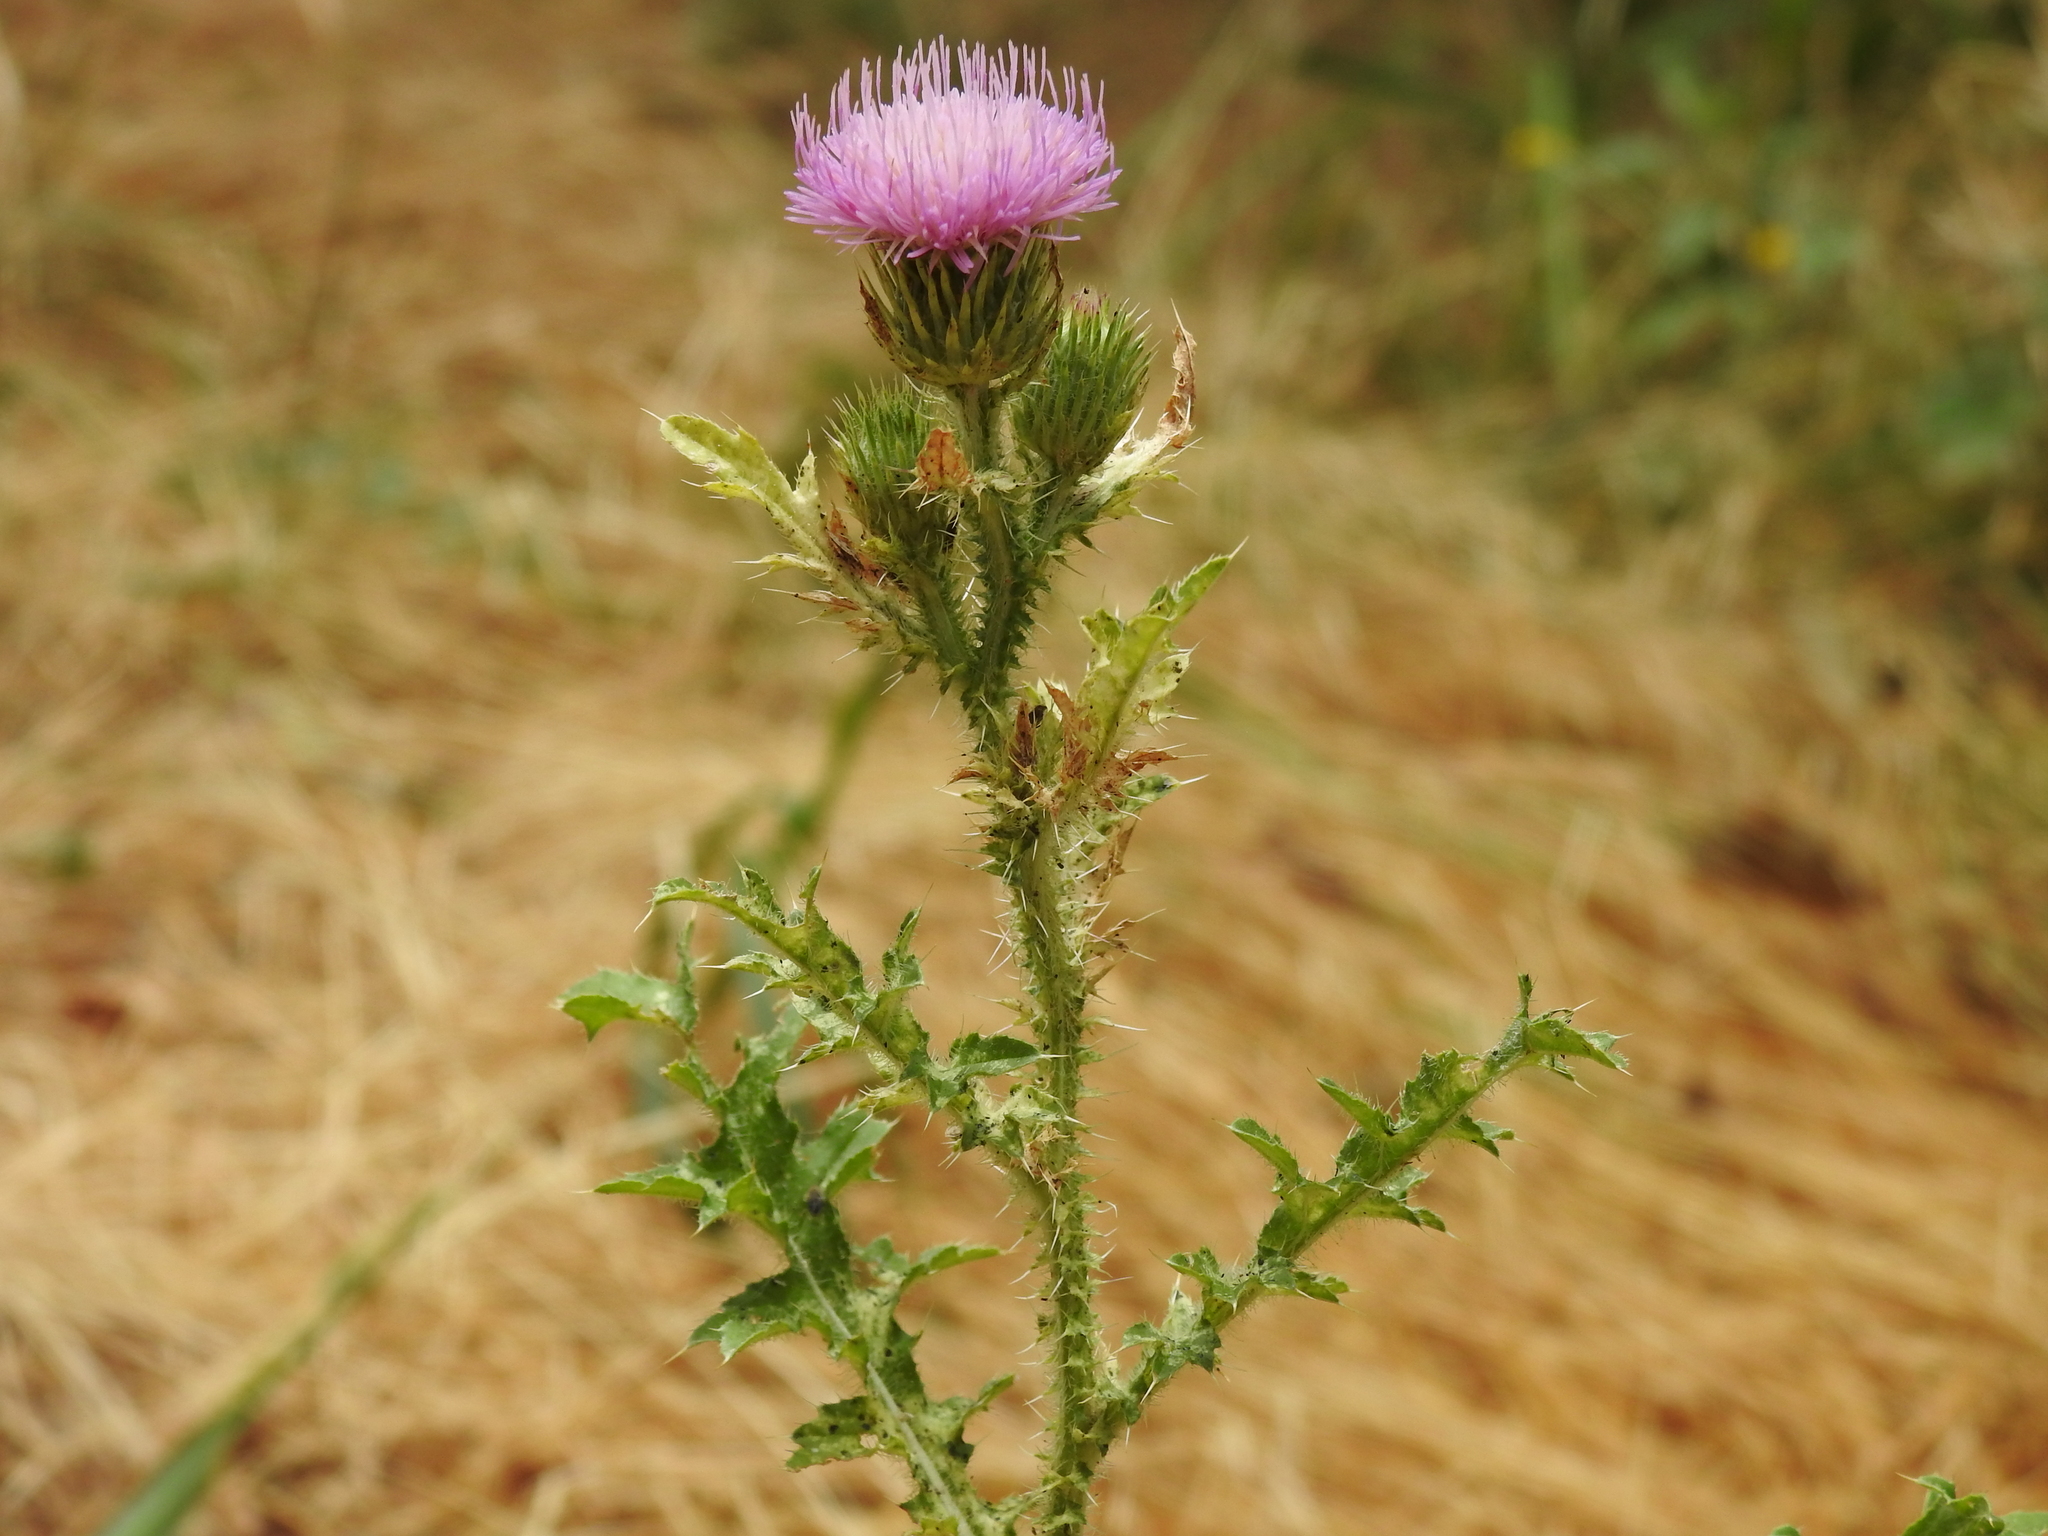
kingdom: Plantae
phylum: Tracheophyta
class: Magnoliopsida
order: Asterales
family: Asteraceae
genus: Carduus
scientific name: Carduus acanthoides
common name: Plumeless thistle
